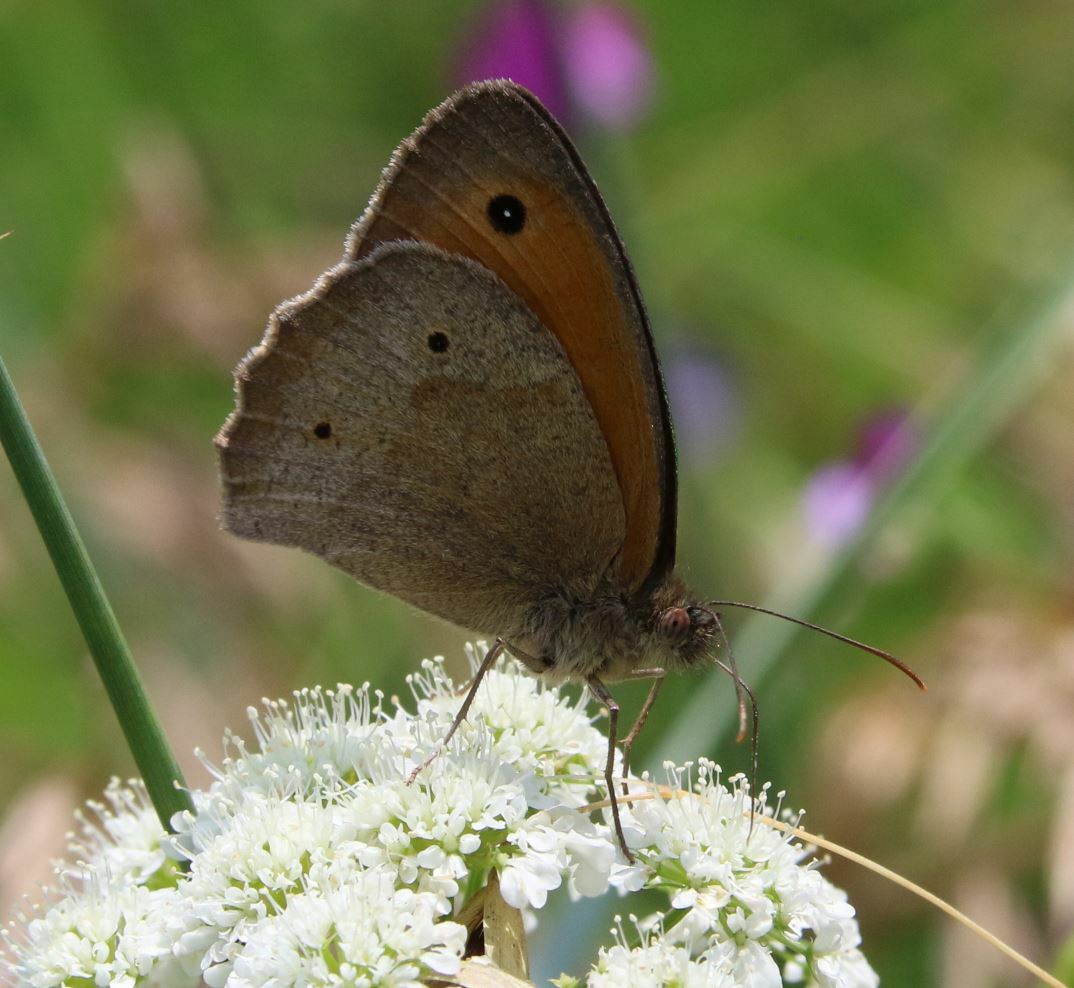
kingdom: Animalia
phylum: Arthropoda
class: Insecta
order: Lepidoptera
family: Nymphalidae
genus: Maniola
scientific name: Maniola jurtina
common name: Meadow brown
